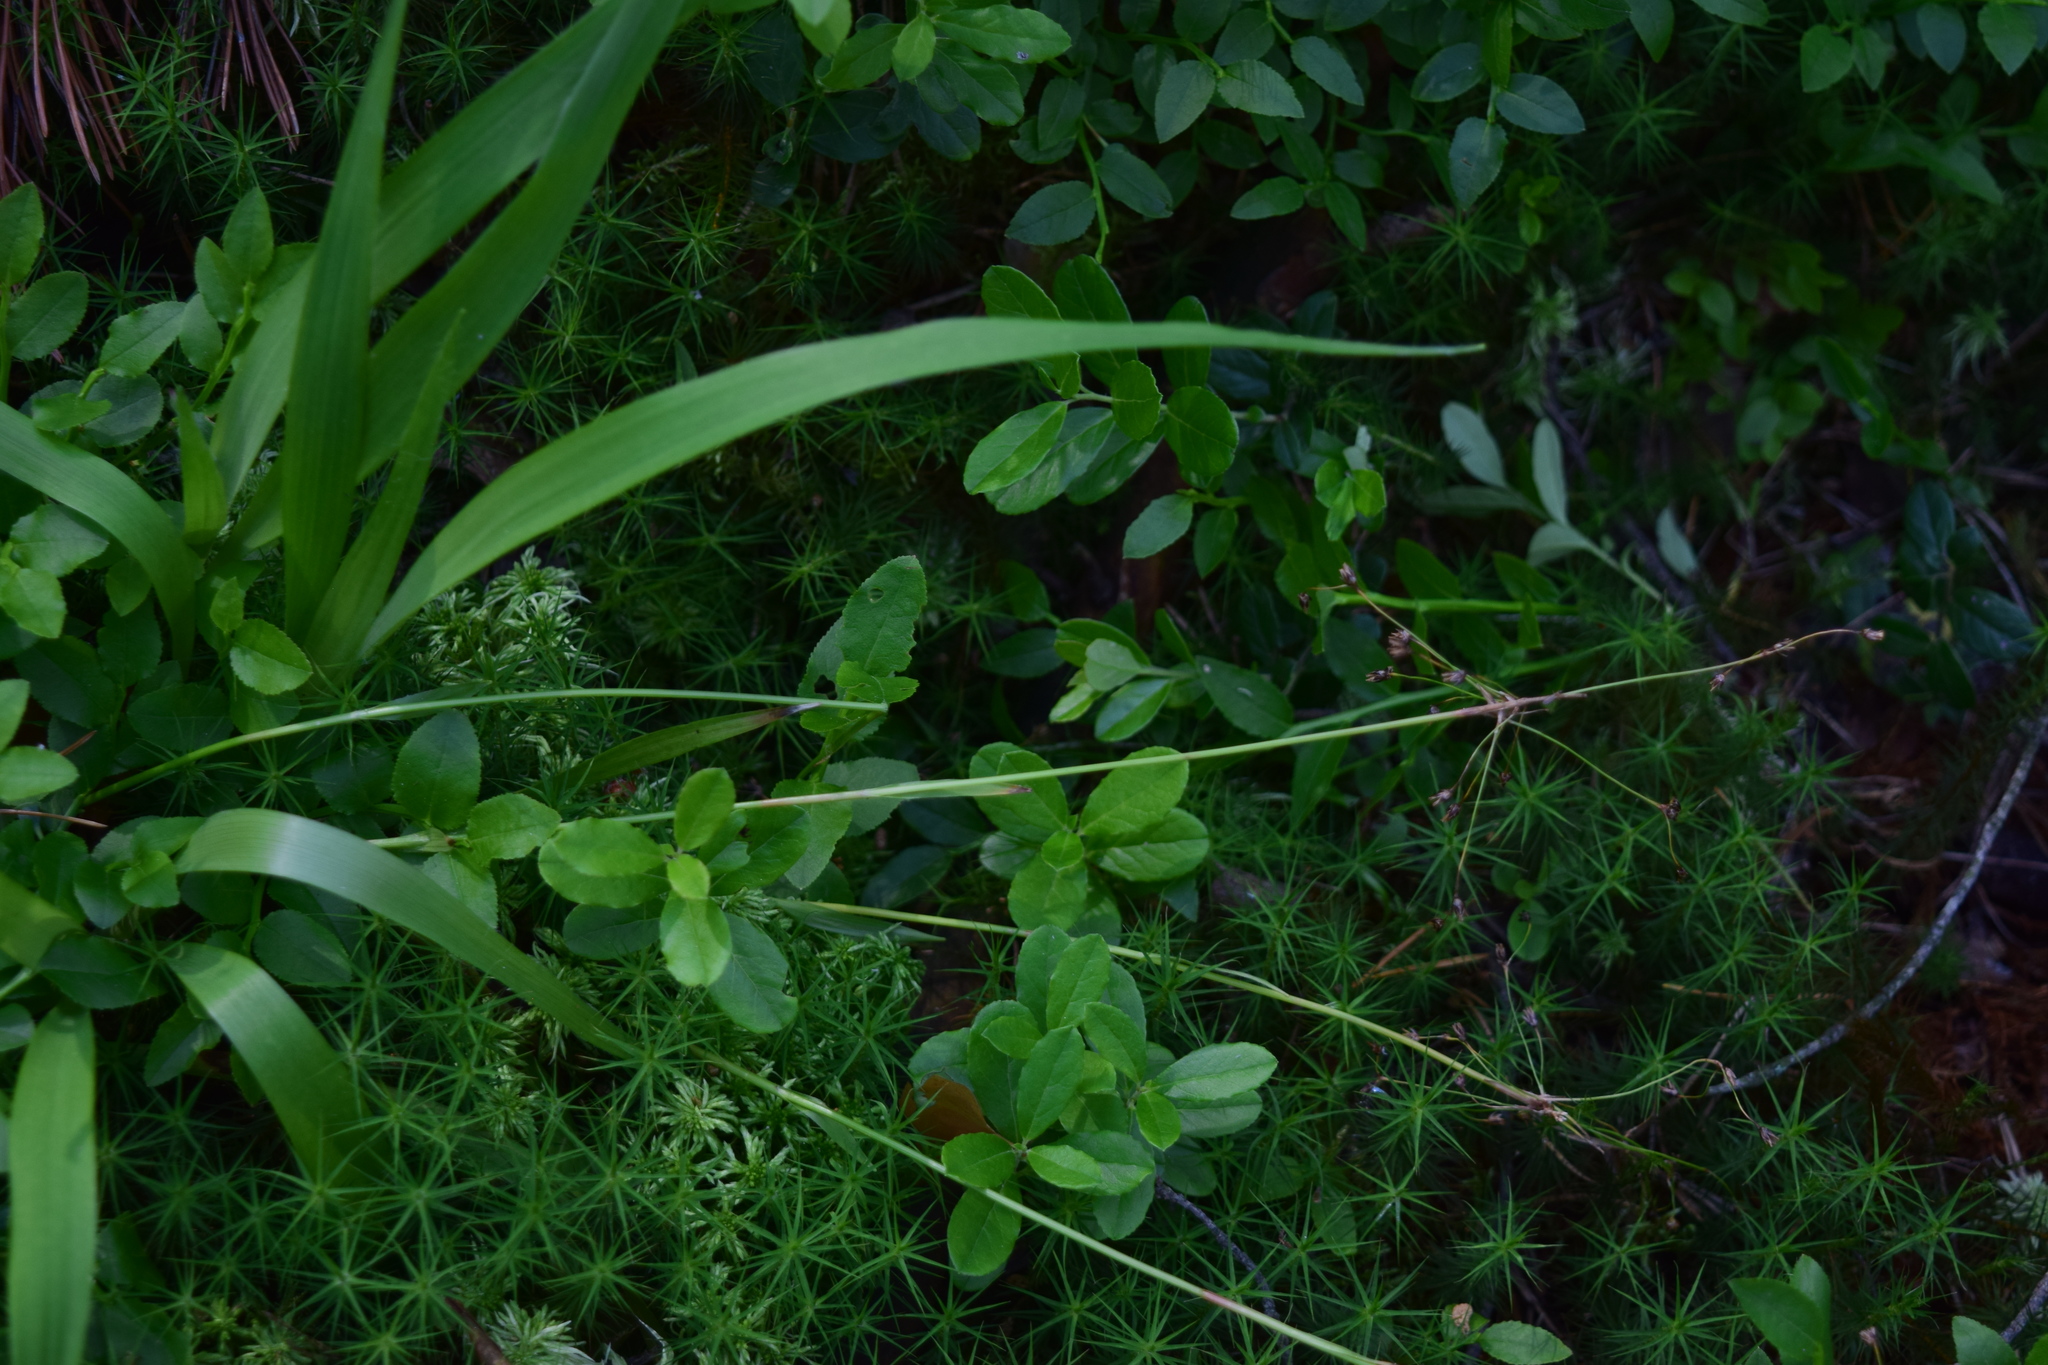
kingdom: Plantae
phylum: Tracheophyta
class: Liliopsida
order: Poales
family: Juncaceae
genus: Luzula
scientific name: Luzula pilosa
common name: Hairy wood-rush
